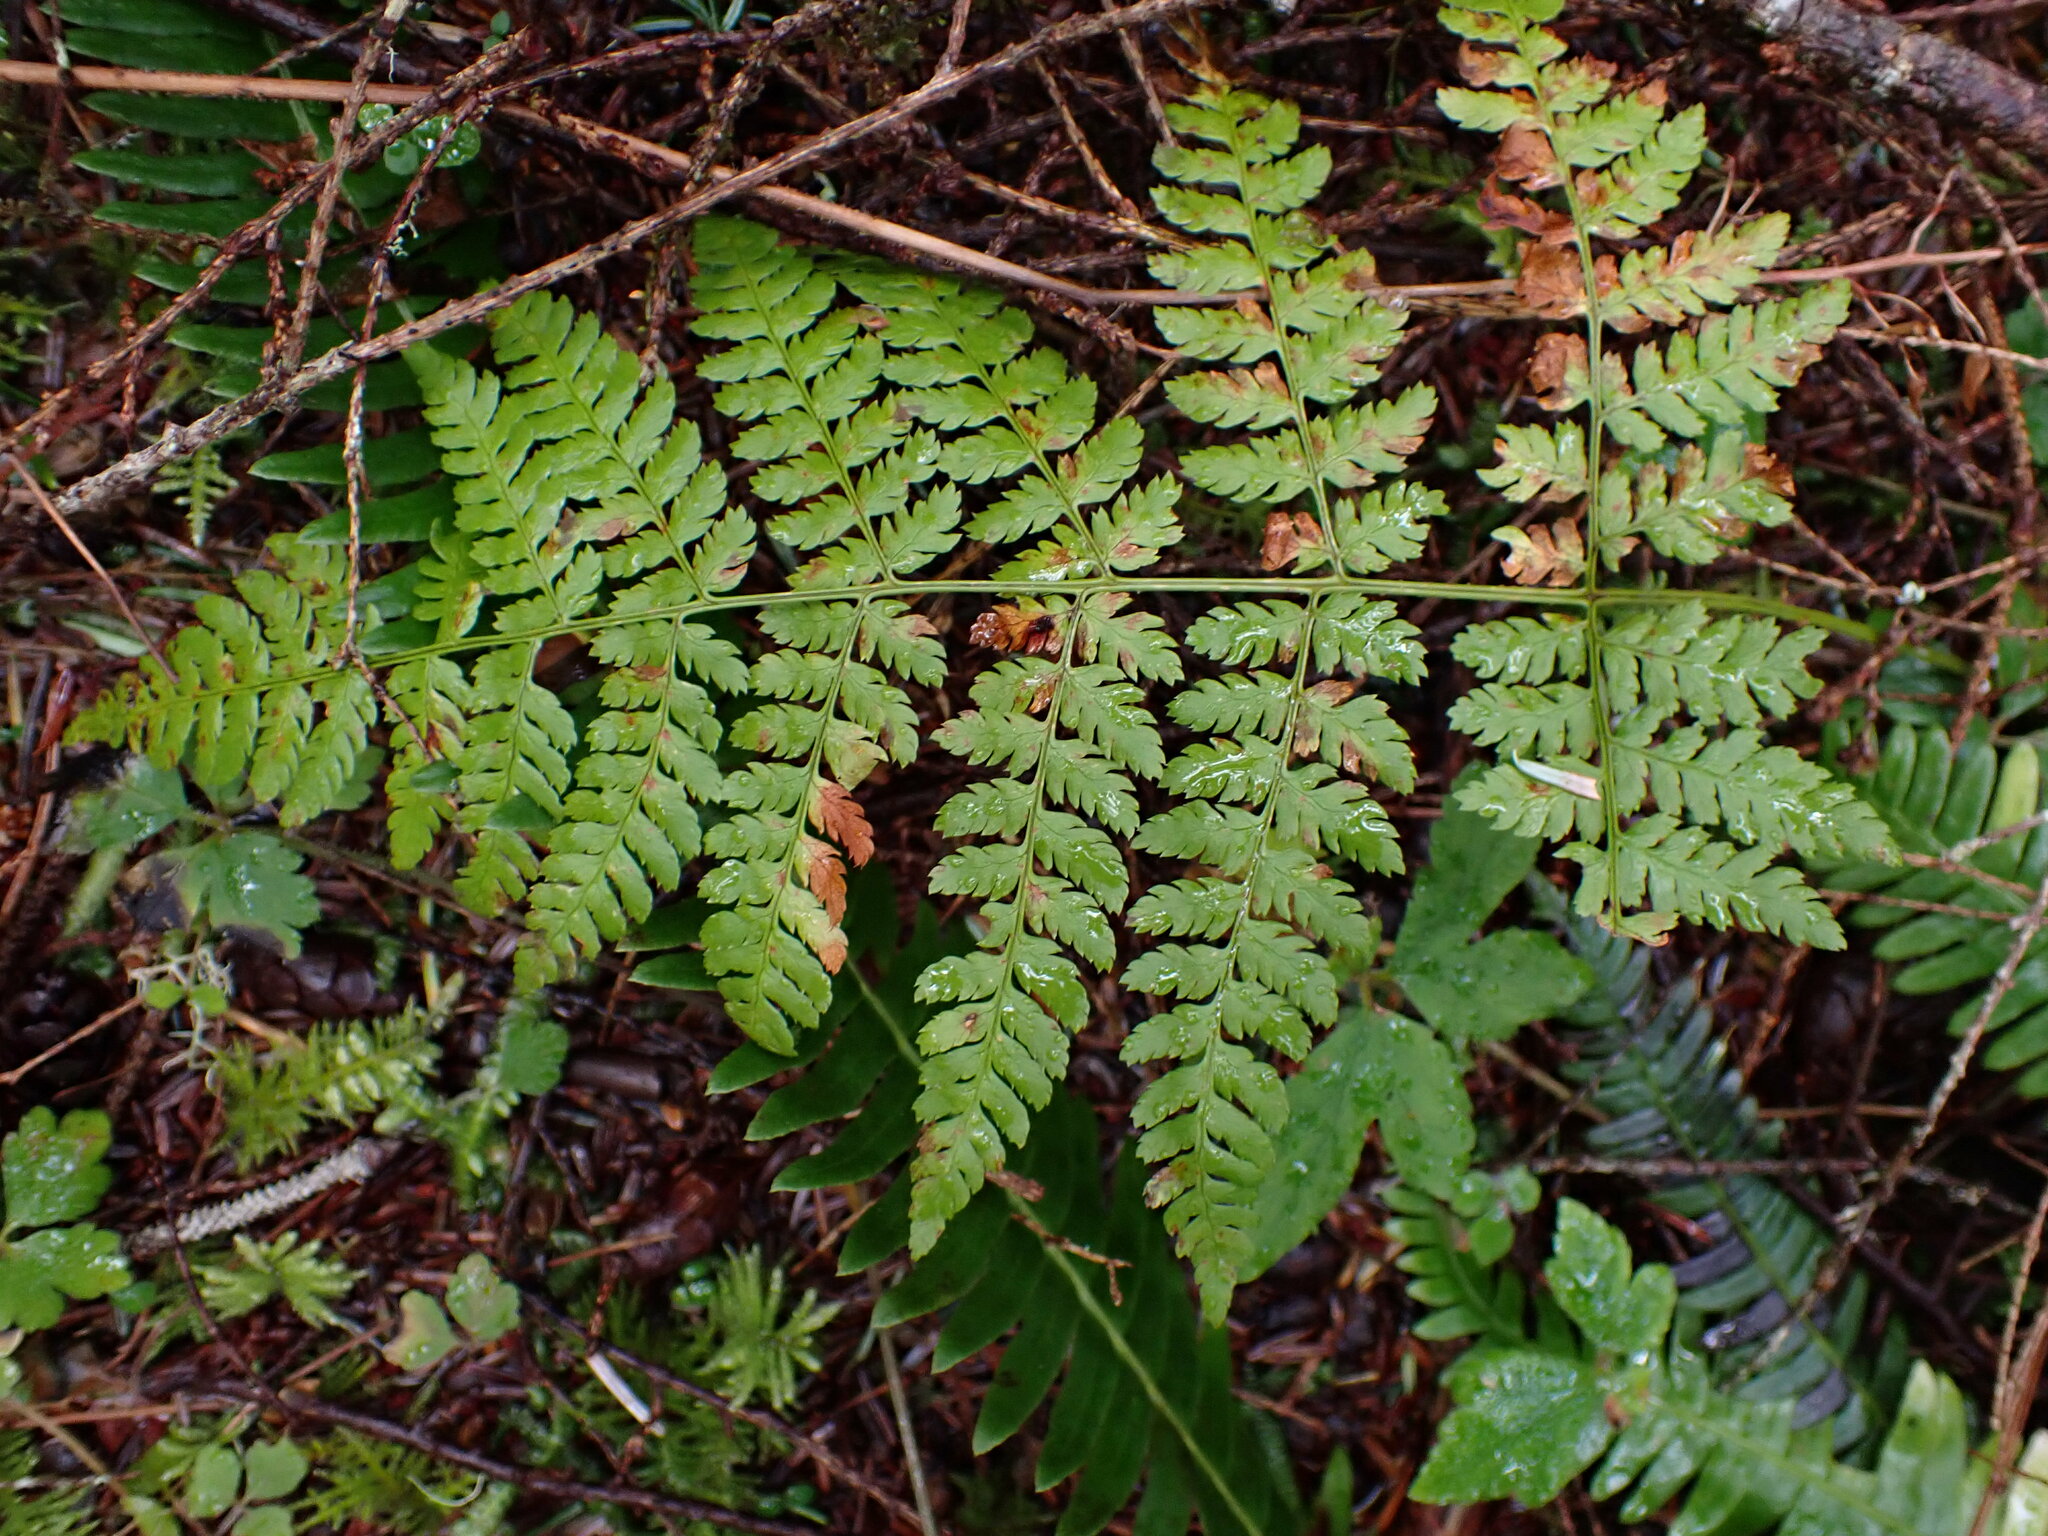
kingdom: Plantae
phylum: Tracheophyta
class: Polypodiopsida
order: Polypodiales
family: Dryopteridaceae
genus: Dryopteris
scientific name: Dryopteris expansa
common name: Northern buckler fern
